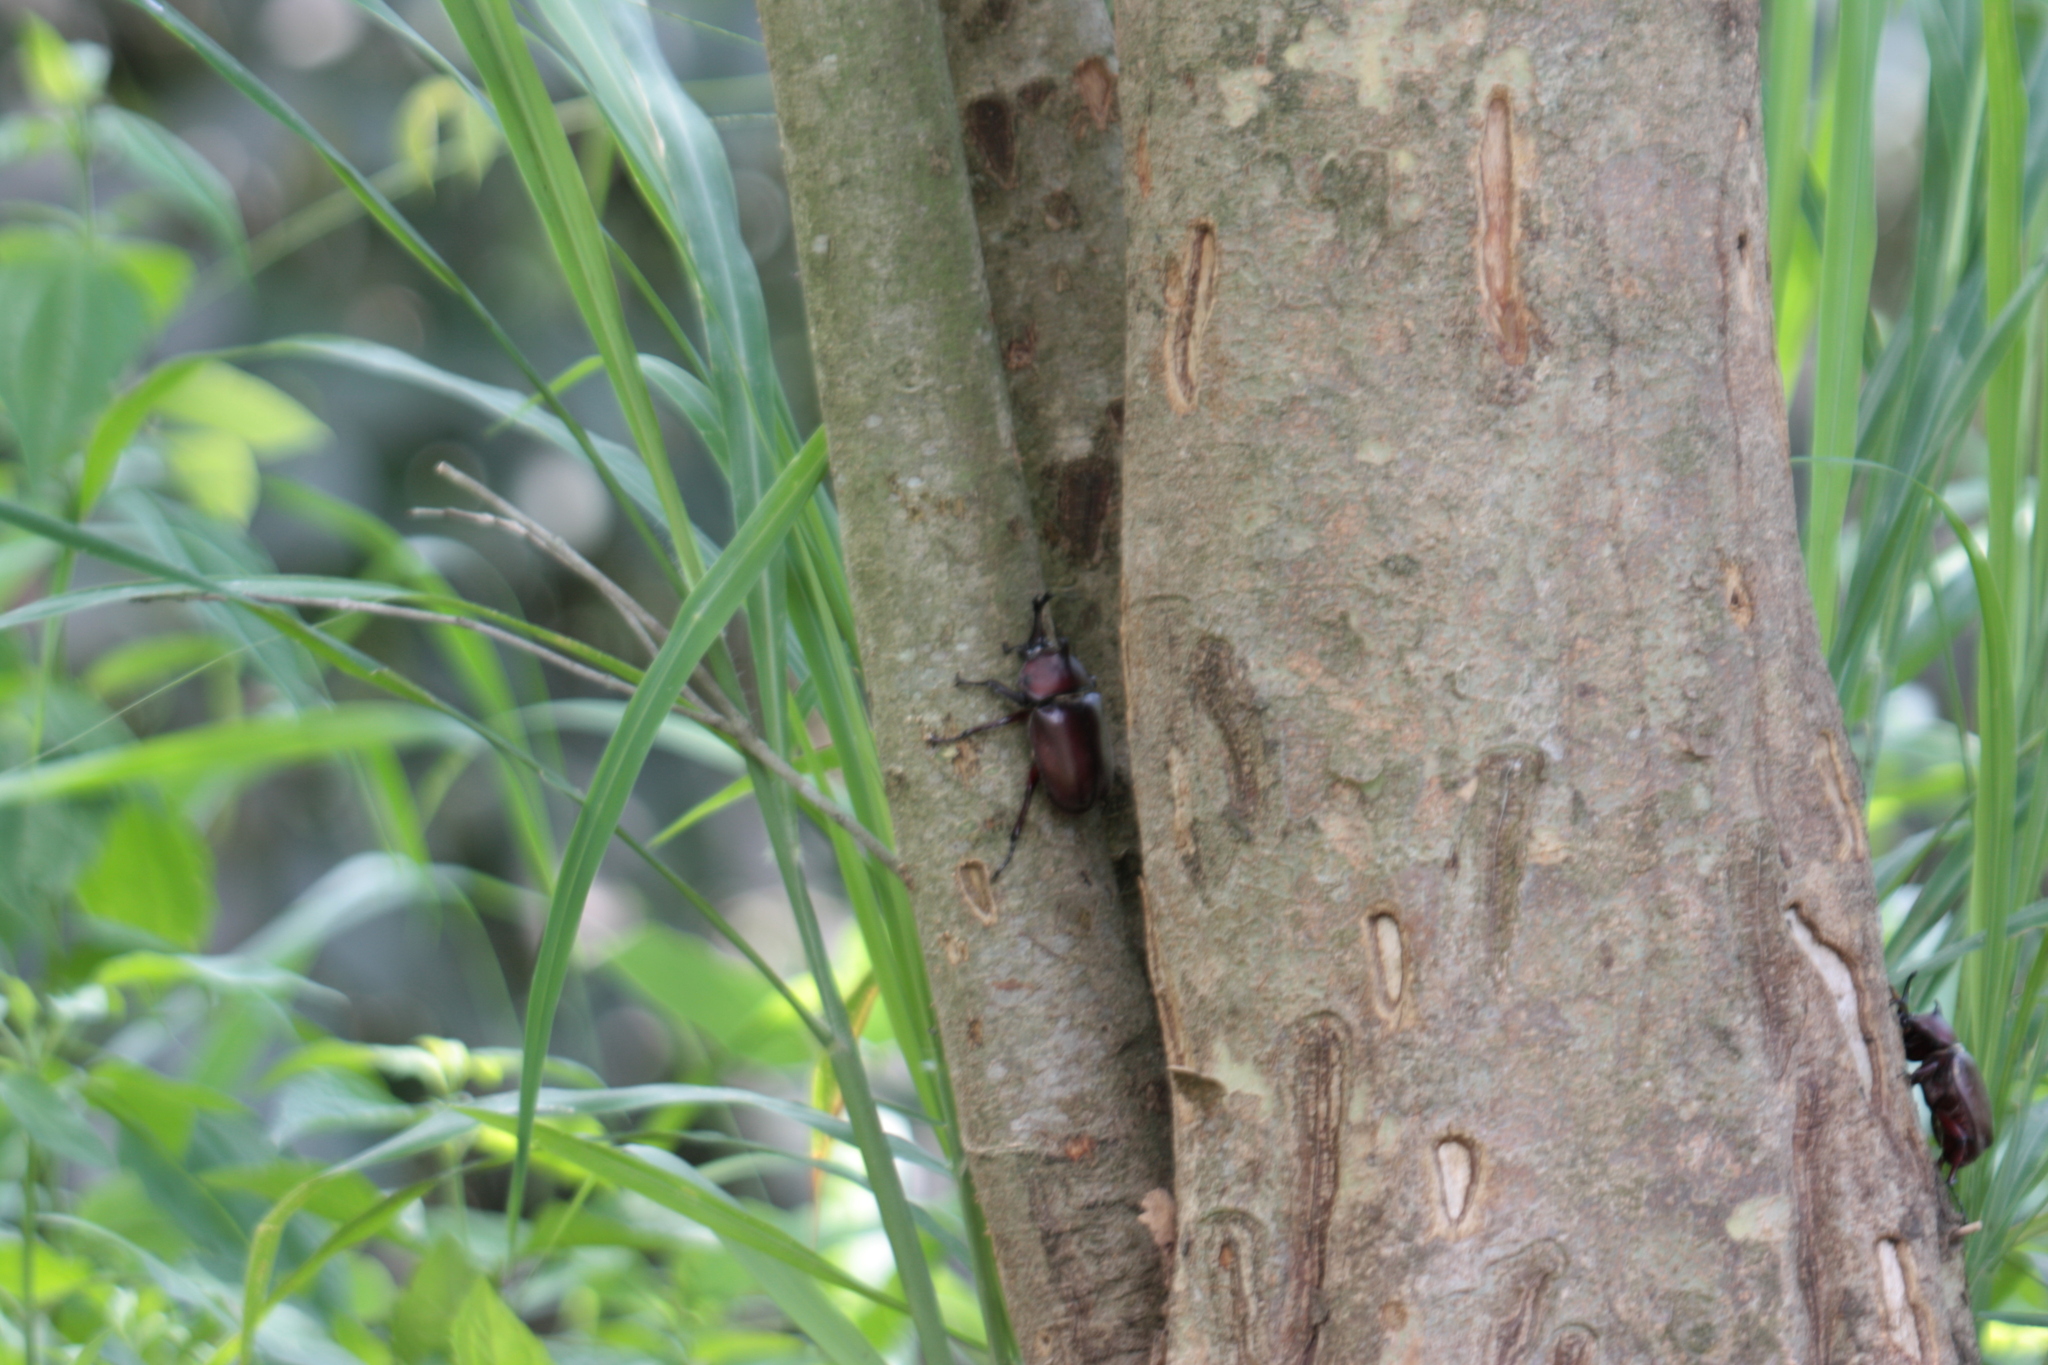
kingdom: Animalia
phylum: Arthropoda
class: Insecta
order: Coleoptera
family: Scarabaeidae
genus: Trypoxylus
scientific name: Trypoxylus dichotomus
